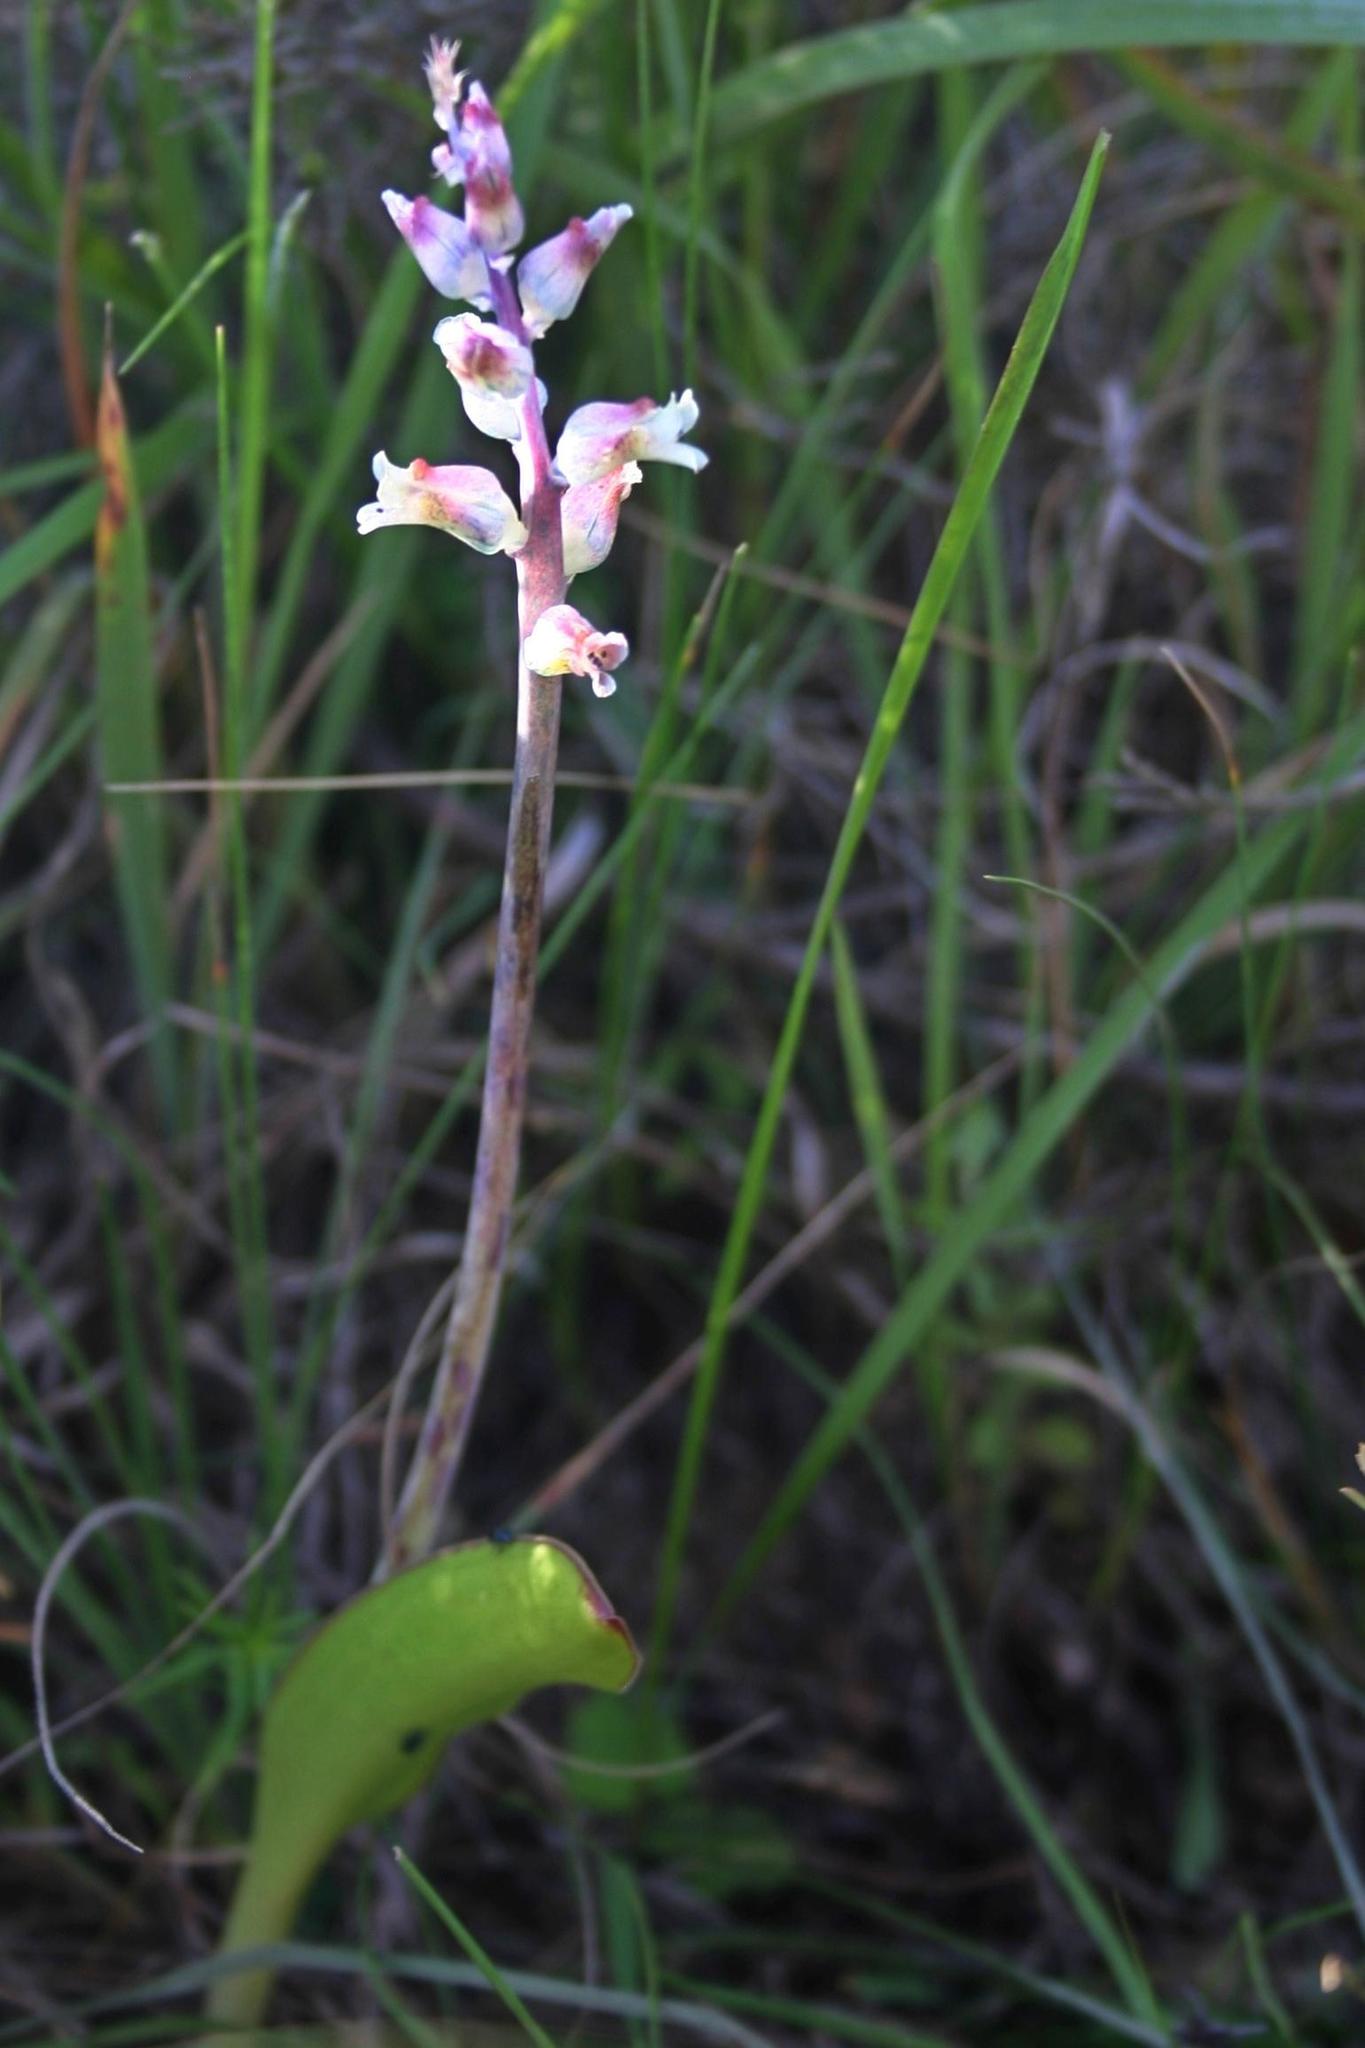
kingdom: Plantae
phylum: Tracheophyta
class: Liliopsida
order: Asparagales
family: Asparagaceae
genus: Lachenalia
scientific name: Lachenalia judithiae
